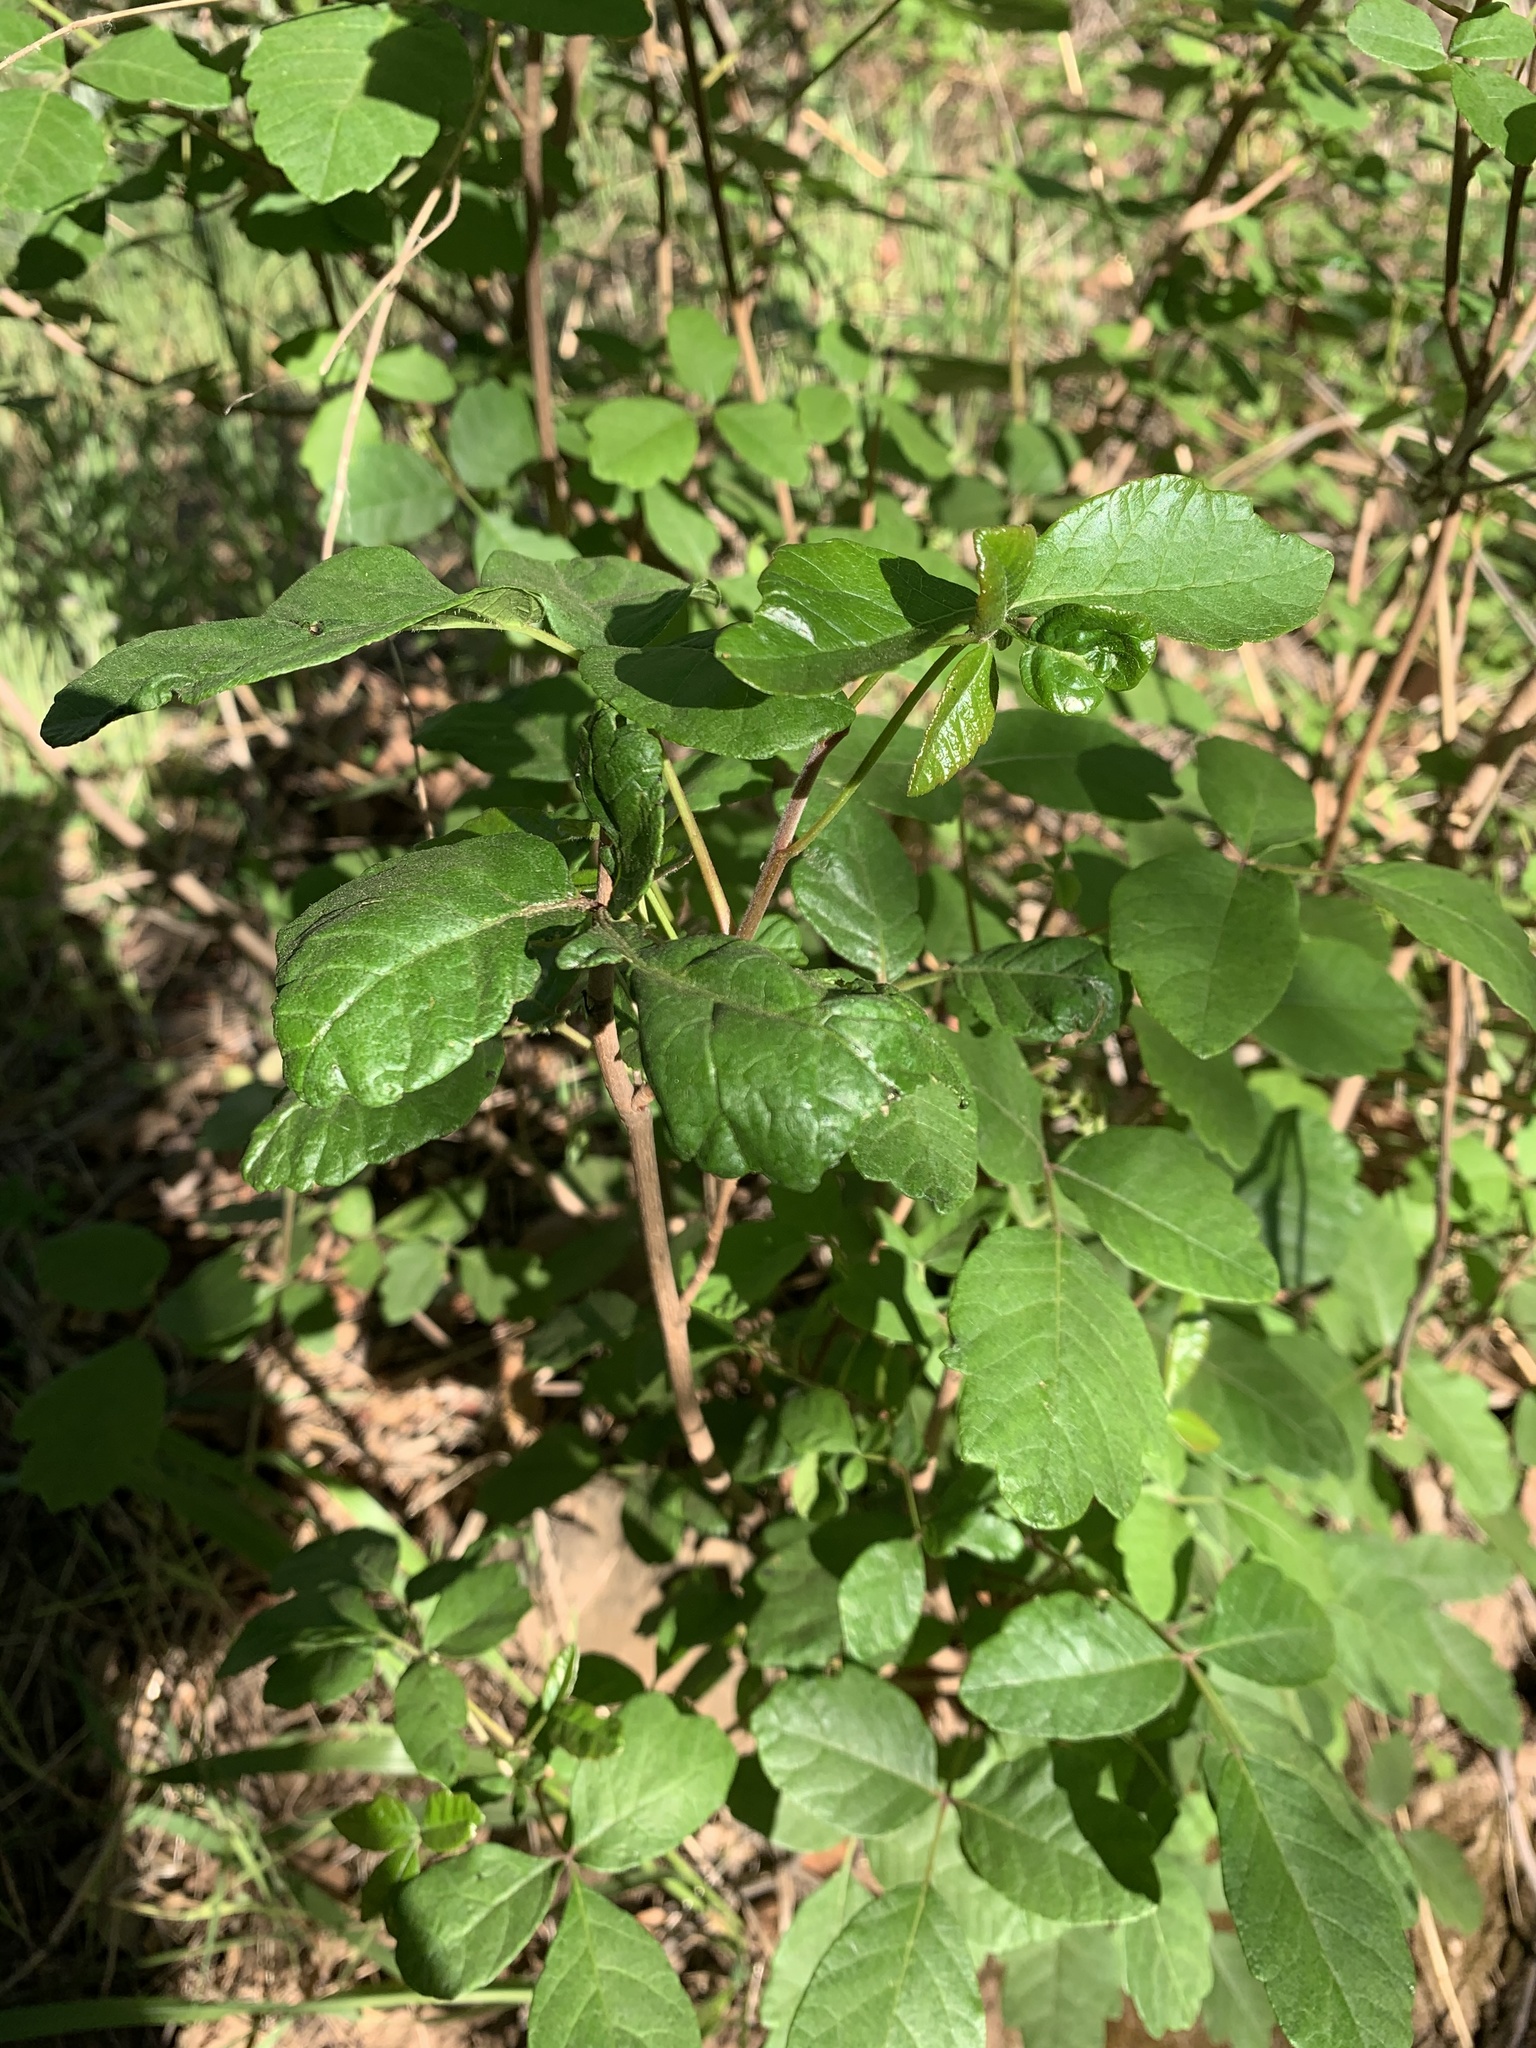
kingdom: Plantae
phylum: Tracheophyta
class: Magnoliopsida
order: Sapindales
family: Anacardiaceae
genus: Toxicodendron
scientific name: Toxicodendron diversilobum
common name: Pacific poison-oak
